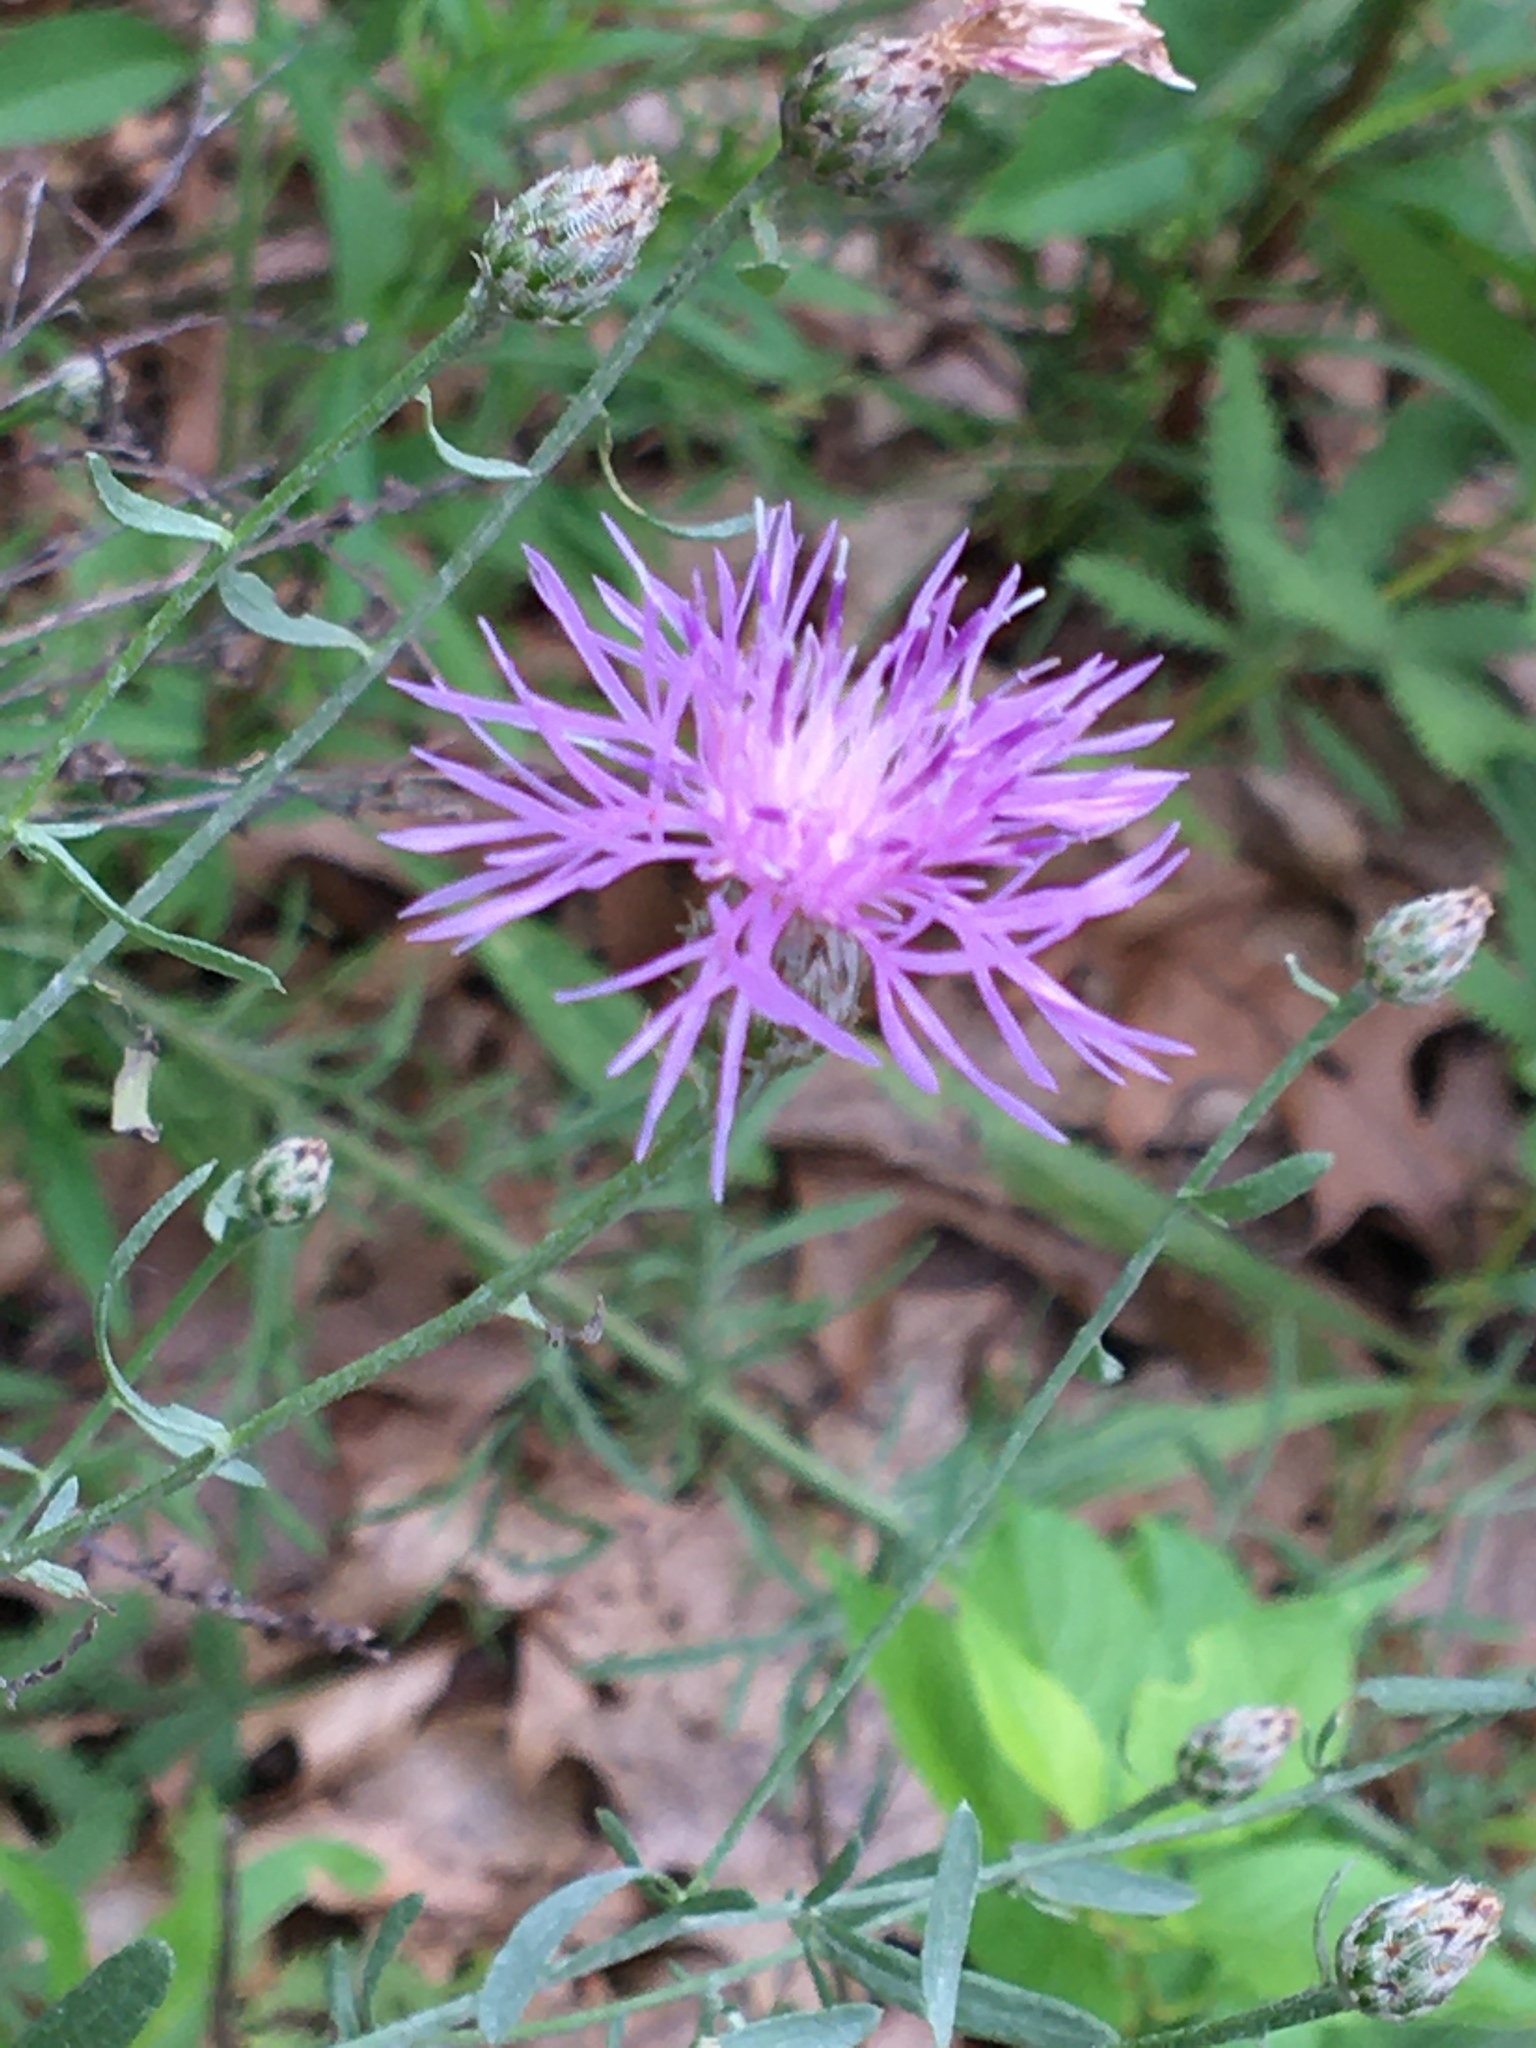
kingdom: Plantae
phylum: Tracheophyta
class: Magnoliopsida
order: Asterales
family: Asteraceae
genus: Centaurea
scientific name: Centaurea stoebe
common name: Spotted knapweed
